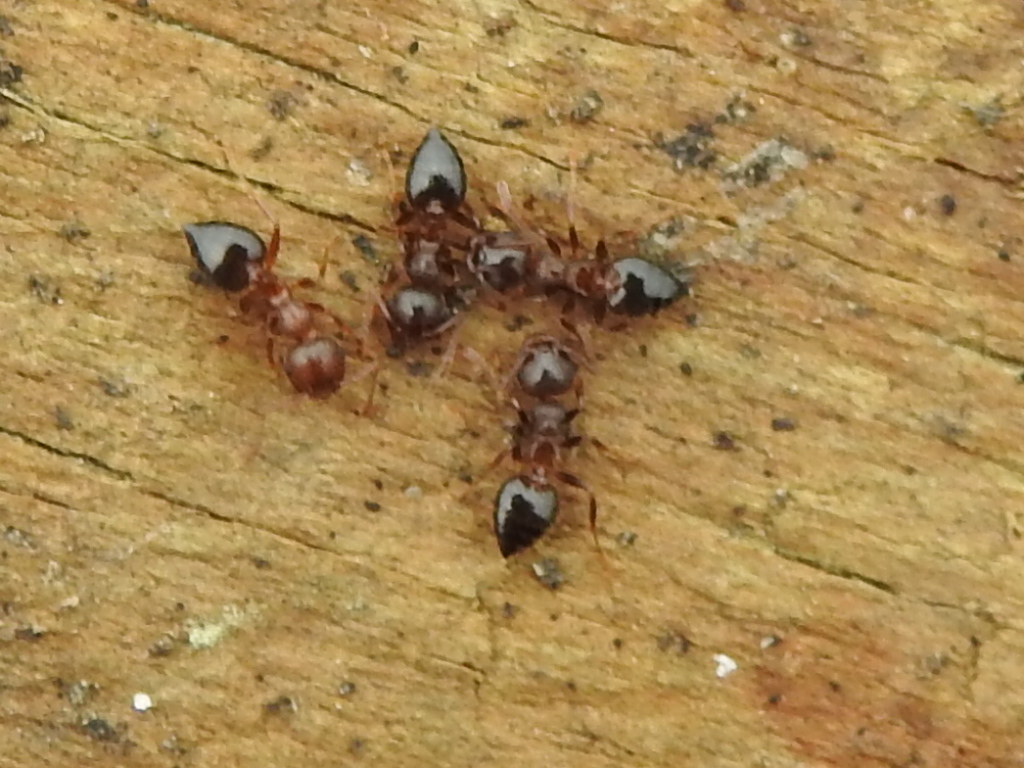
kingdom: Animalia
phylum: Arthropoda
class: Insecta
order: Hymenoptera
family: Formicidae
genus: Crematogaster
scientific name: Crematogaster ashmeadi
